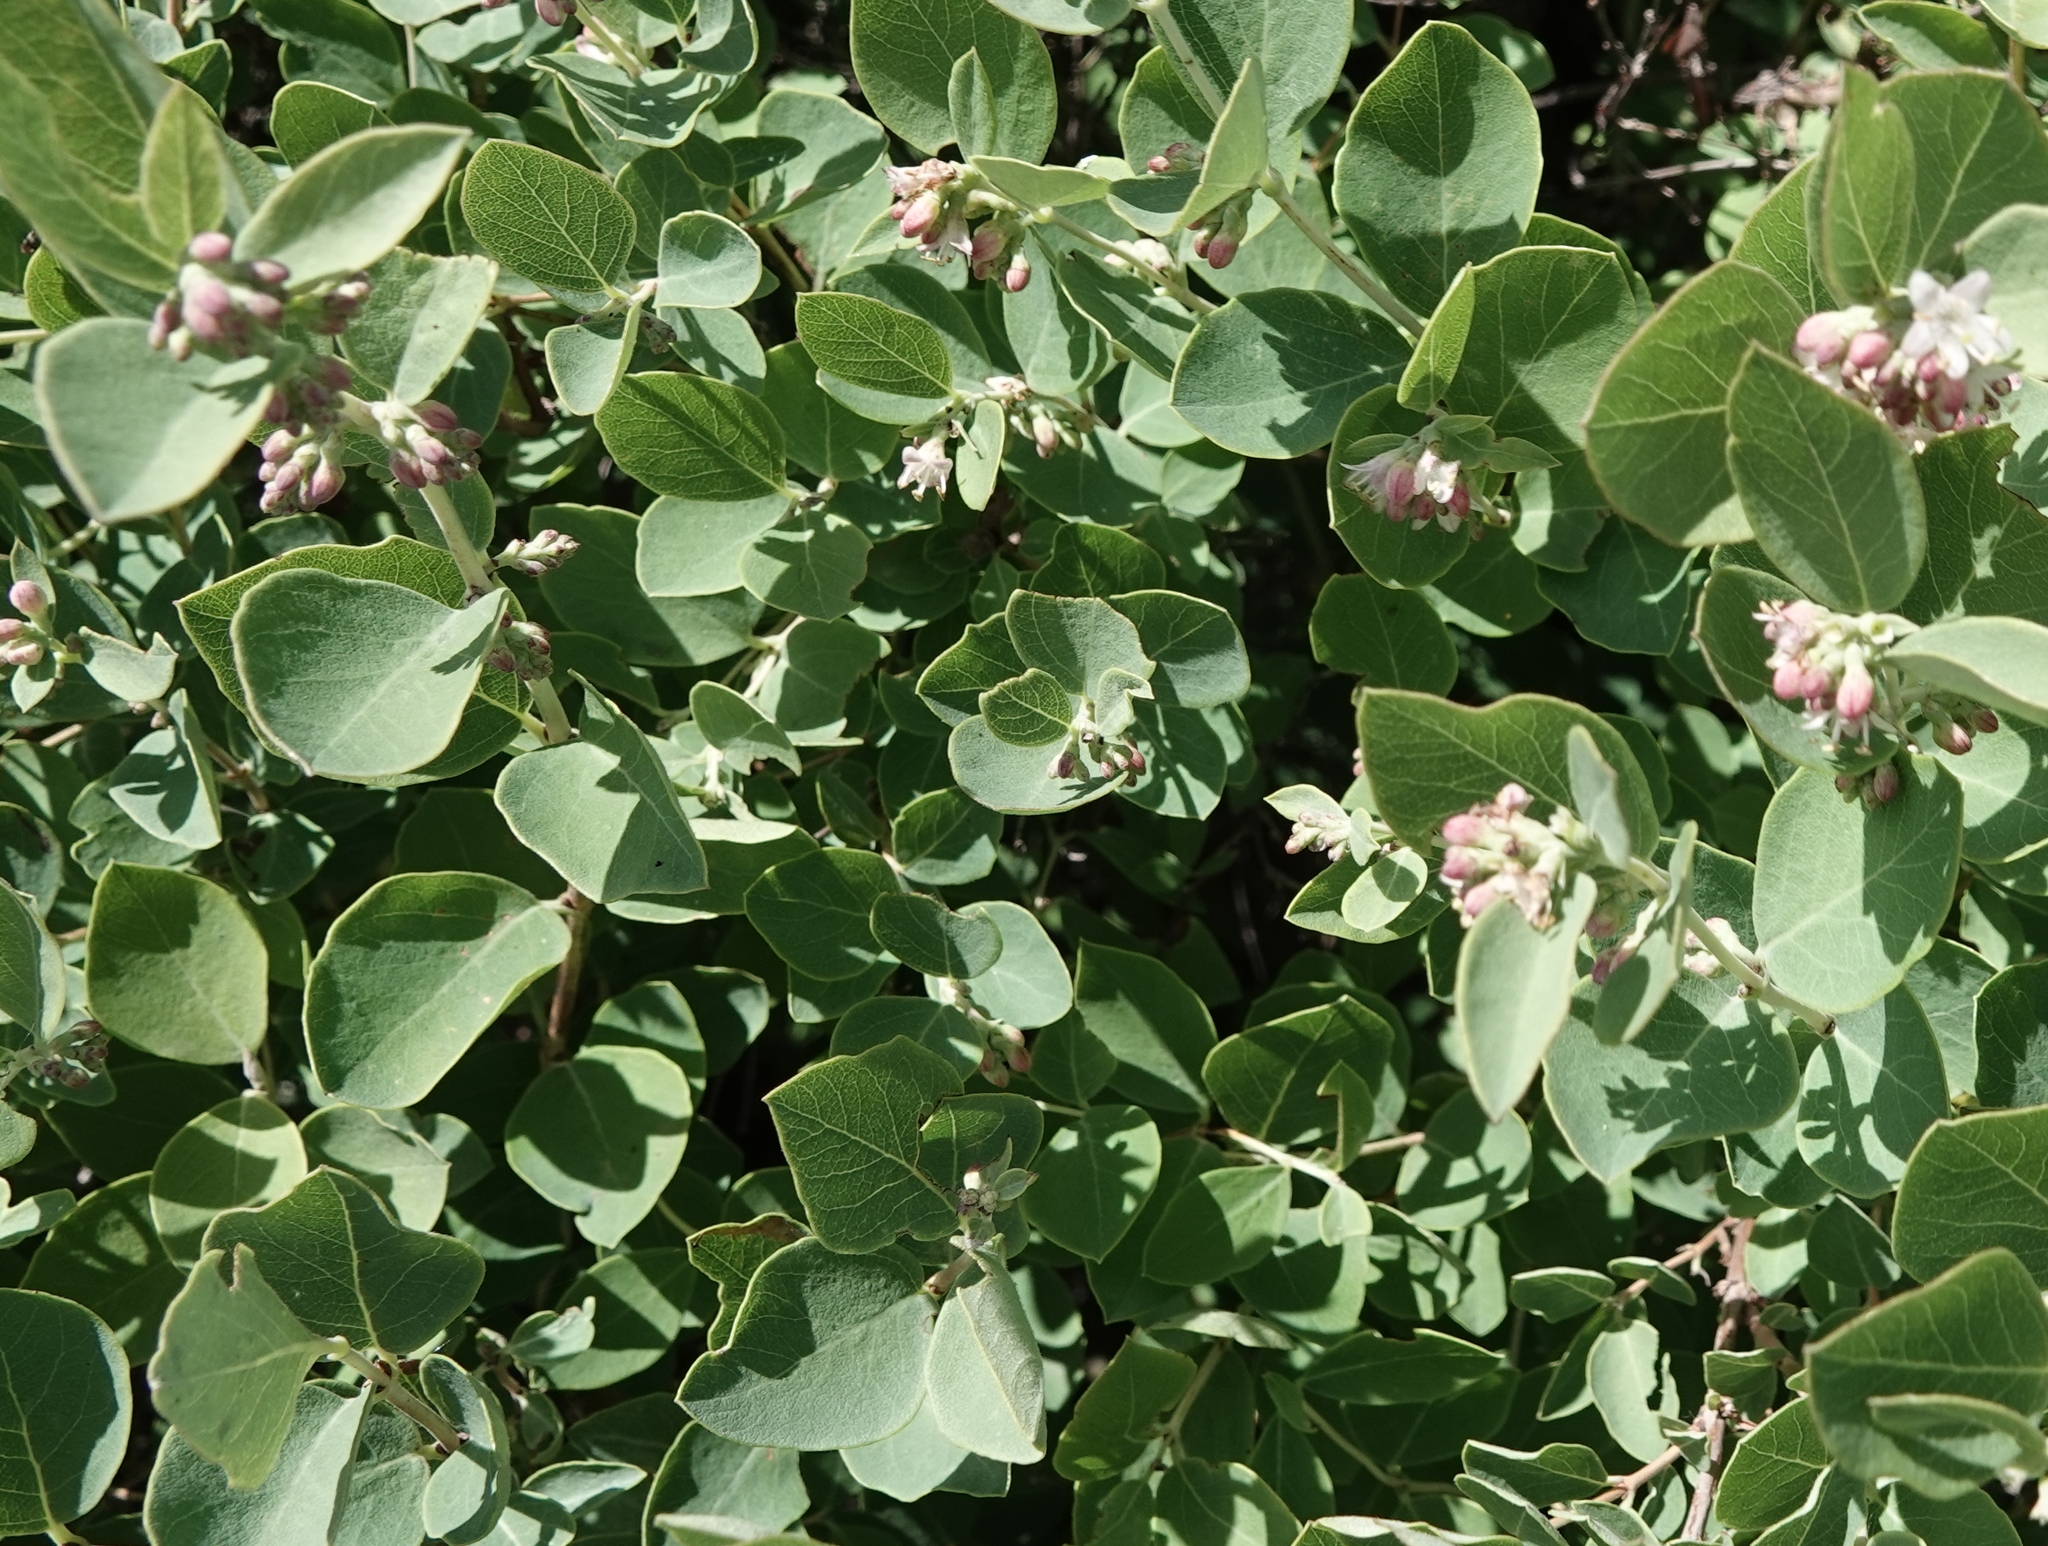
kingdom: Plantae
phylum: Tracheophyta
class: Magnoliopsida
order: Dipsacales
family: Caprifoliaceae
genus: Symphoricarpos
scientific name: Symphoricarpos occidentalis
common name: Wolfberry
